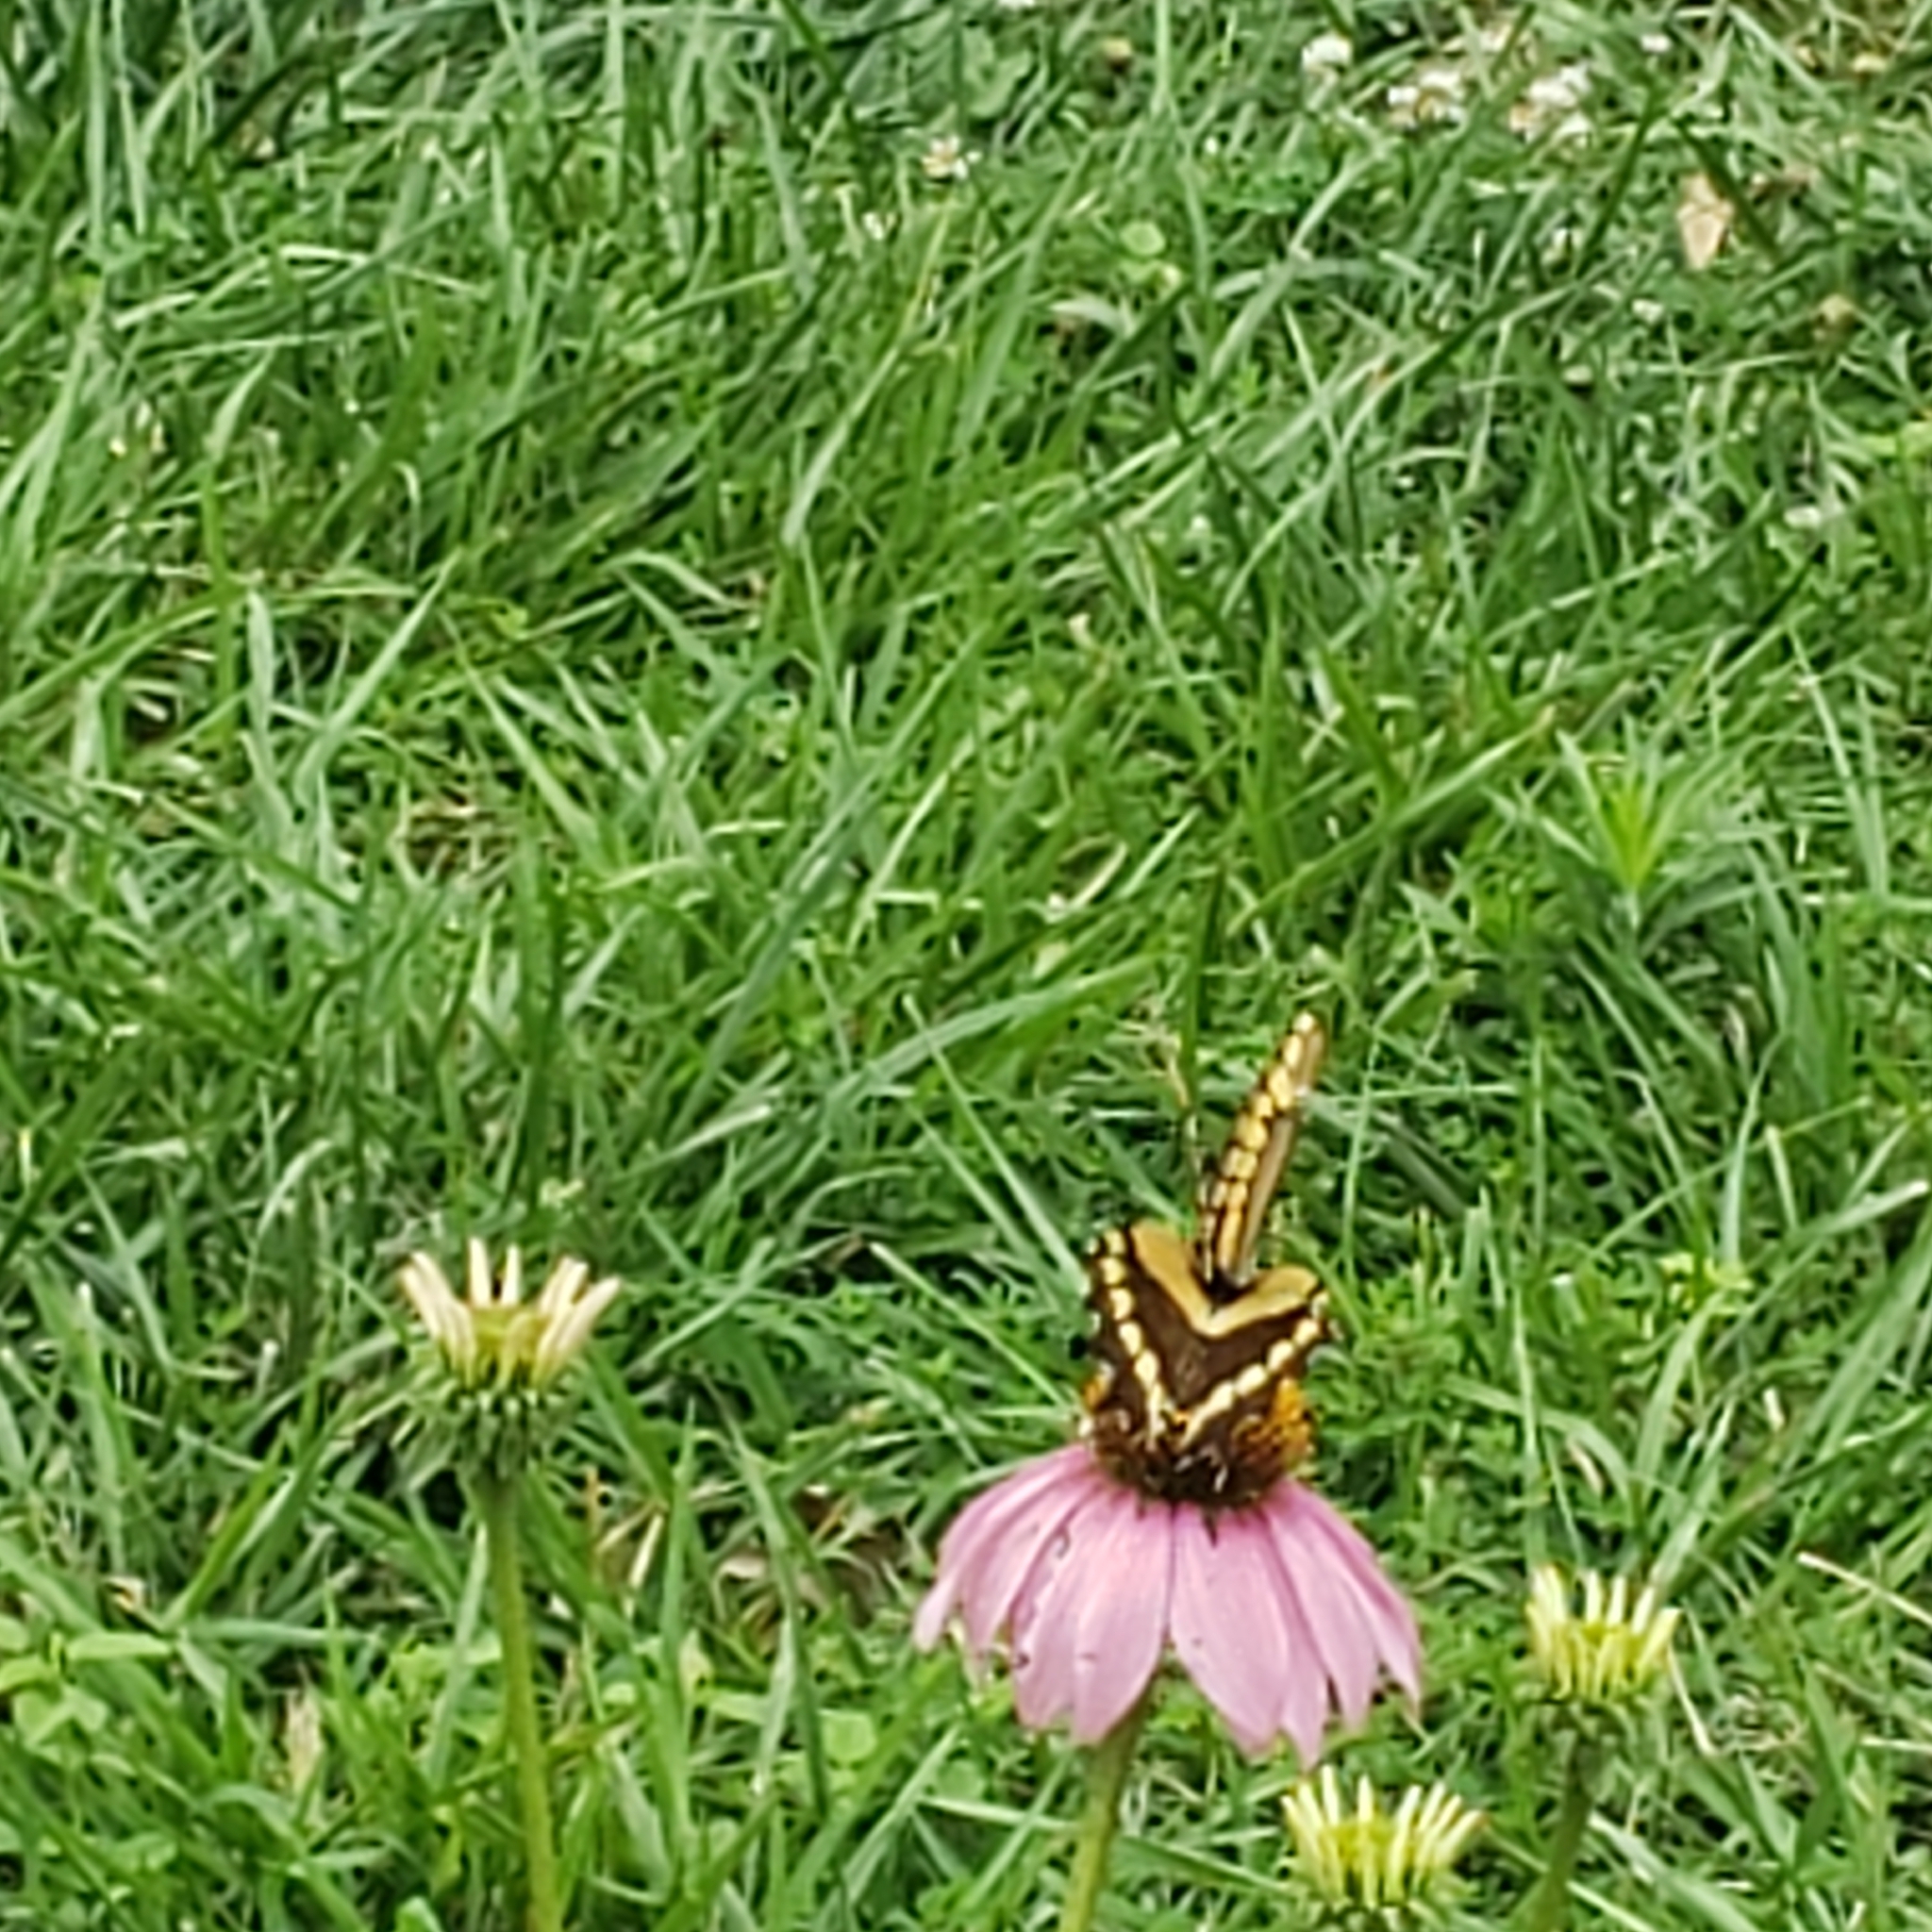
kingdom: Animalia
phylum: Arthropoda
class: Insecta
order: Lepidoptera
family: Papilionidae
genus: Papilio
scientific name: Papilio cresphontes
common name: Giant swallowtail
